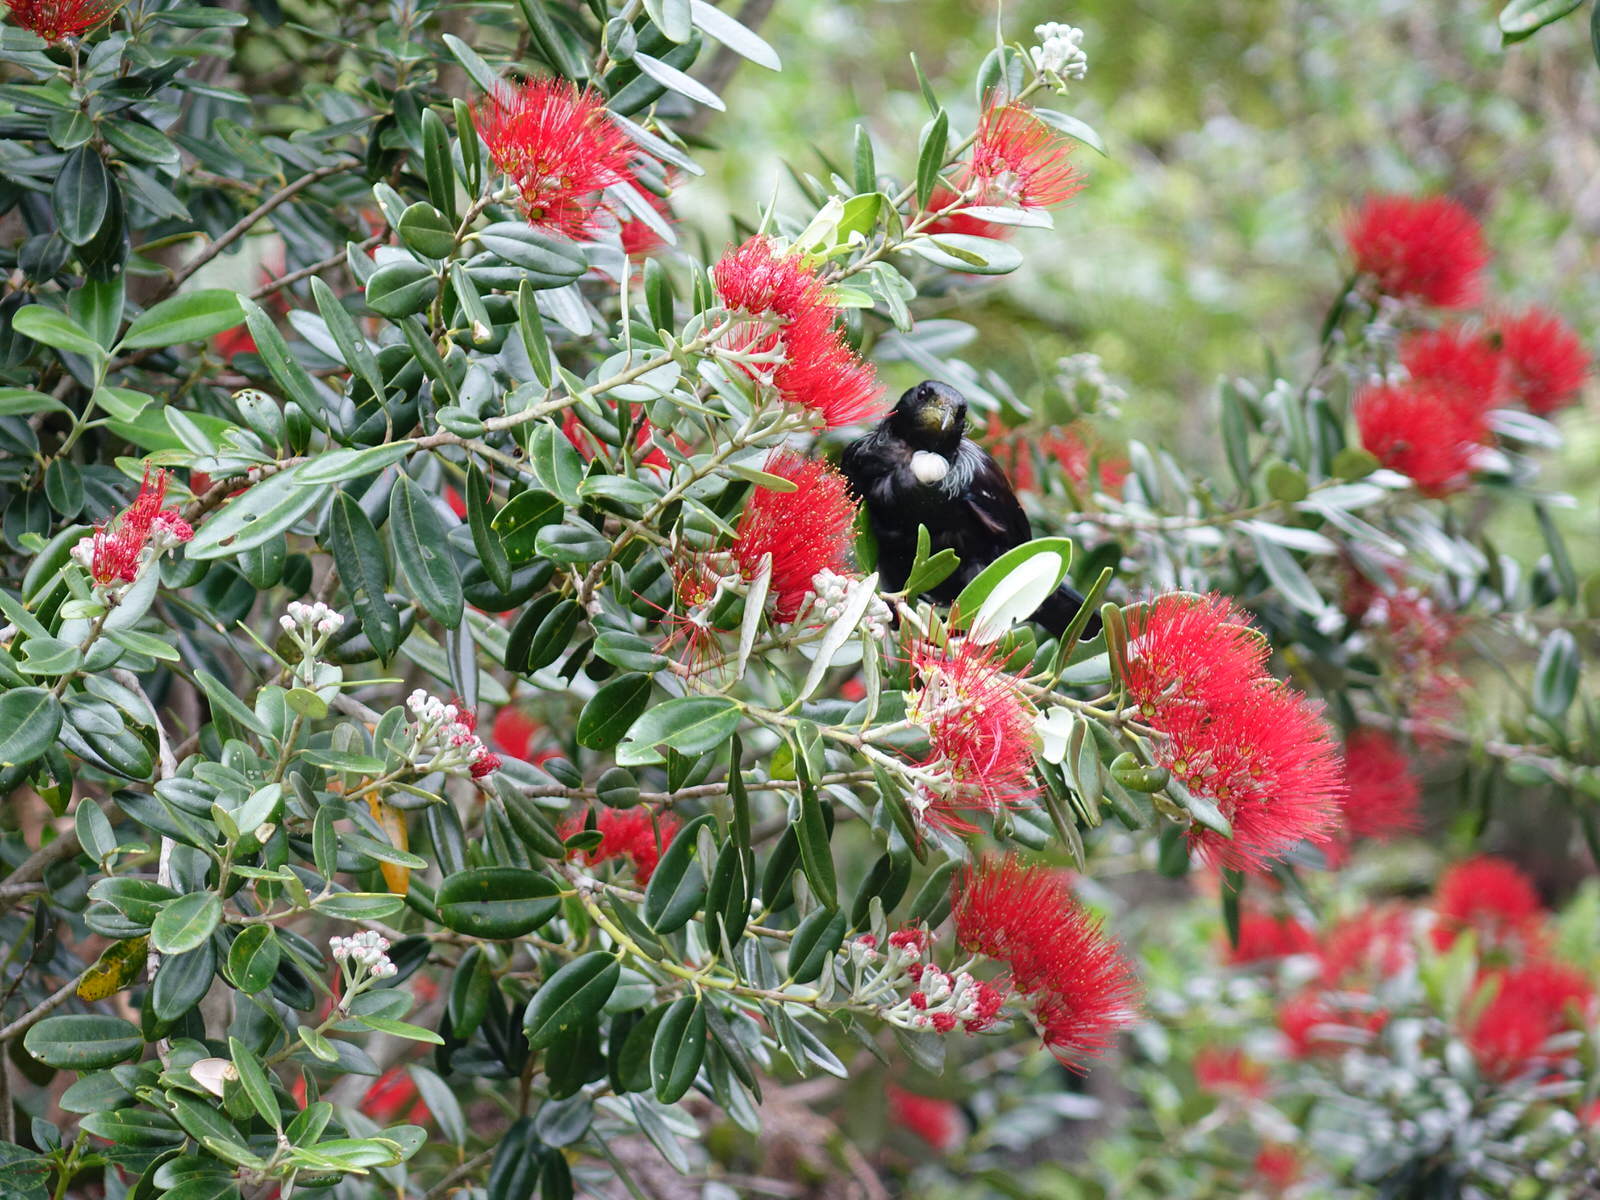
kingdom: Animalia
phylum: Chordata
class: Aves
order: Passeriformes
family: Meliphagidae
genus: Prosthemadera
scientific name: Prosthemadera novaeseelandiae
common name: Tui
